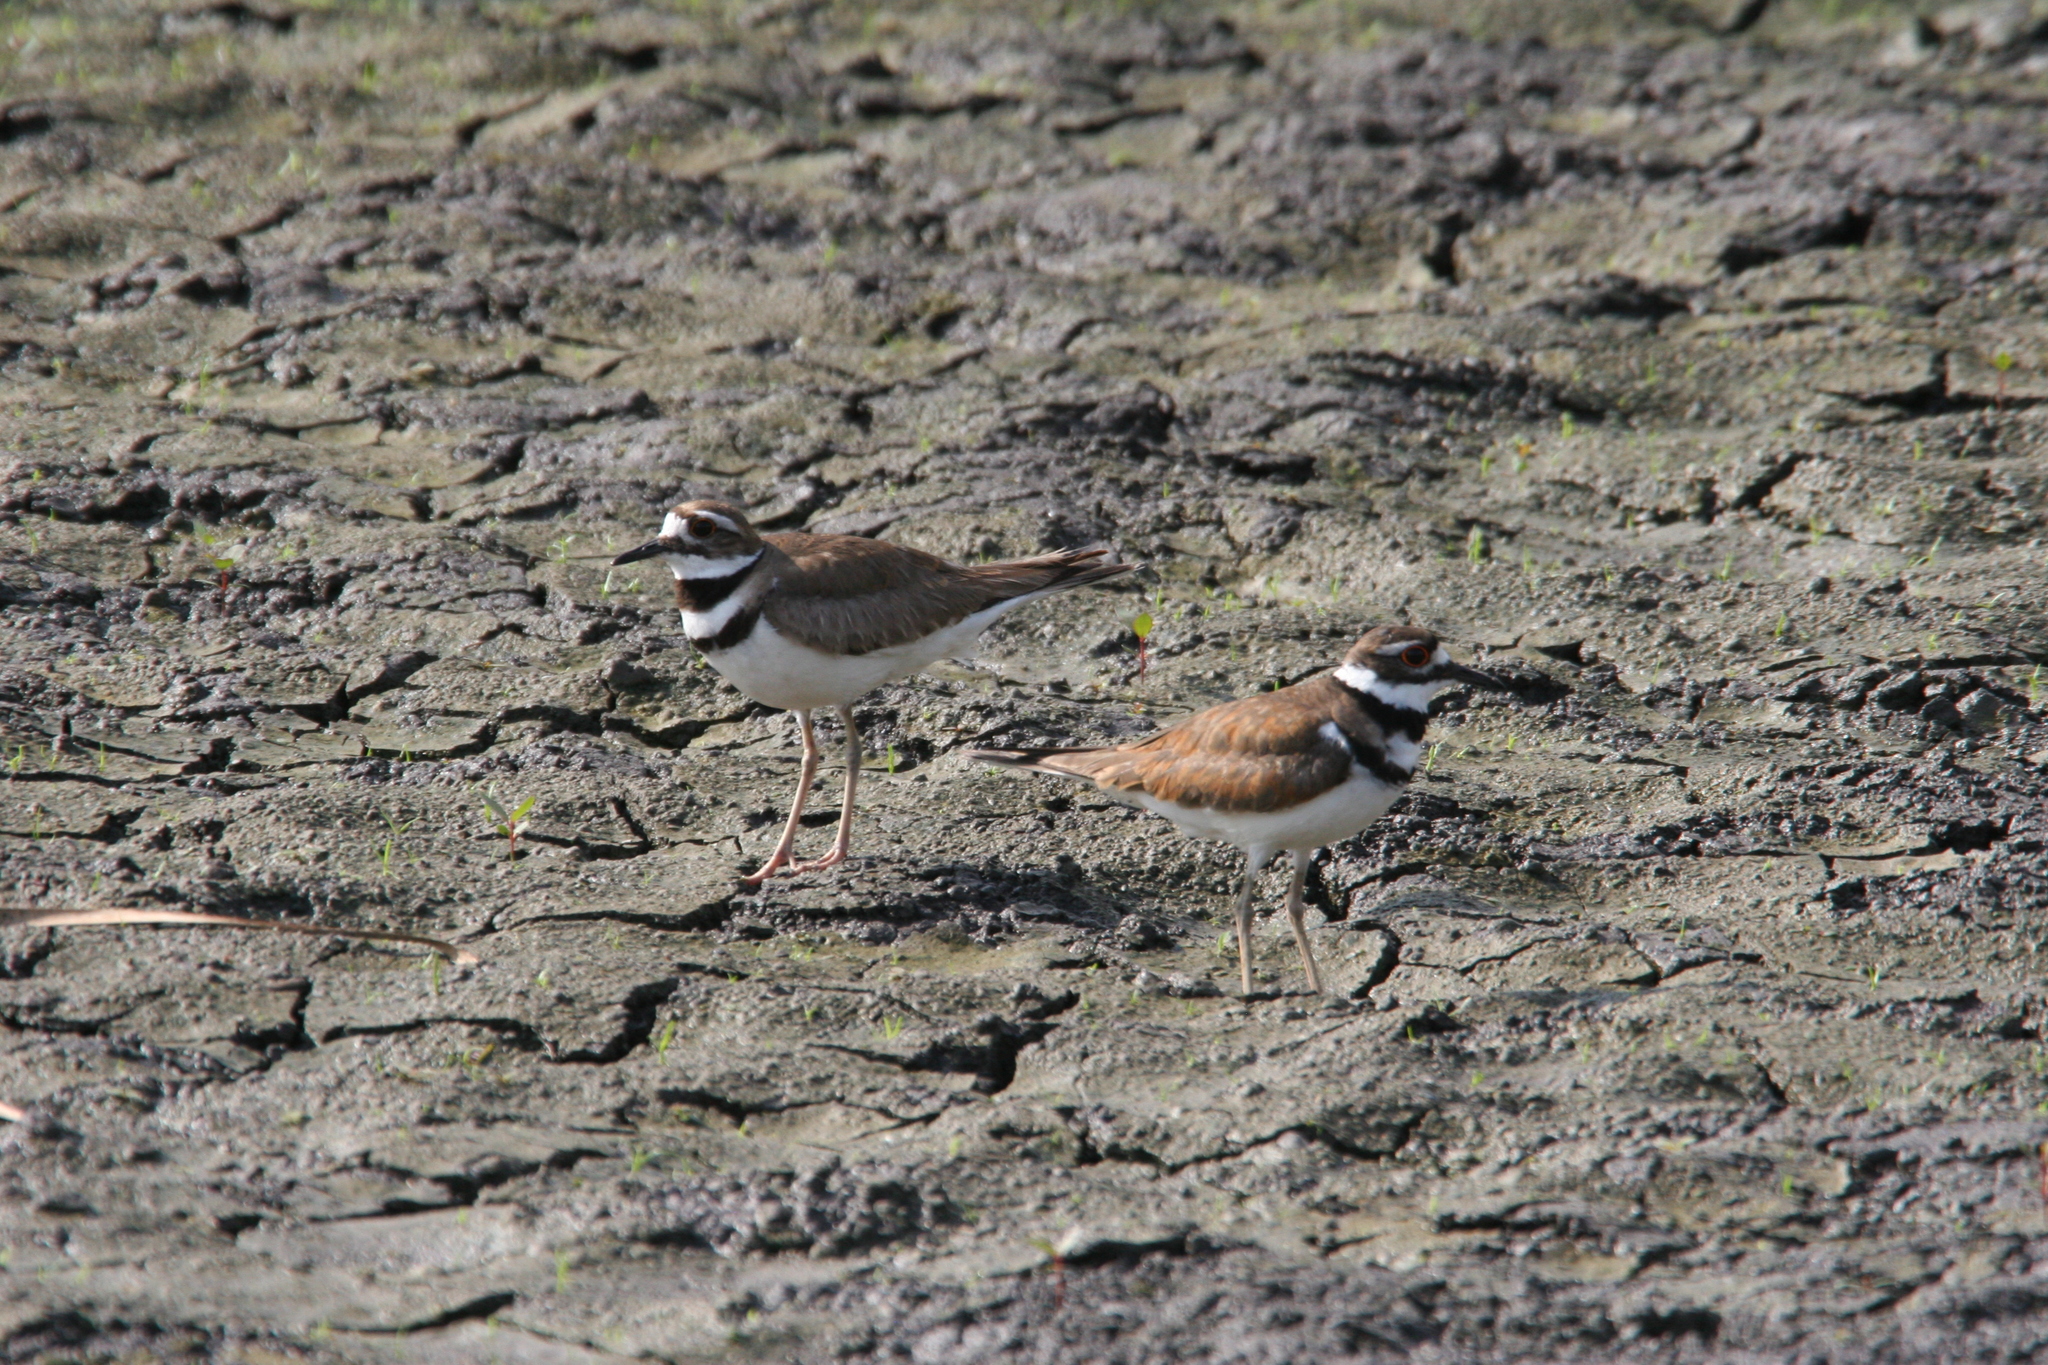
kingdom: Animalia
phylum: Chordata
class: Aves
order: Charadriiformes
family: Charadriidae
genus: Charadrius
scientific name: Charadrius vociferus
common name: Killdeer
